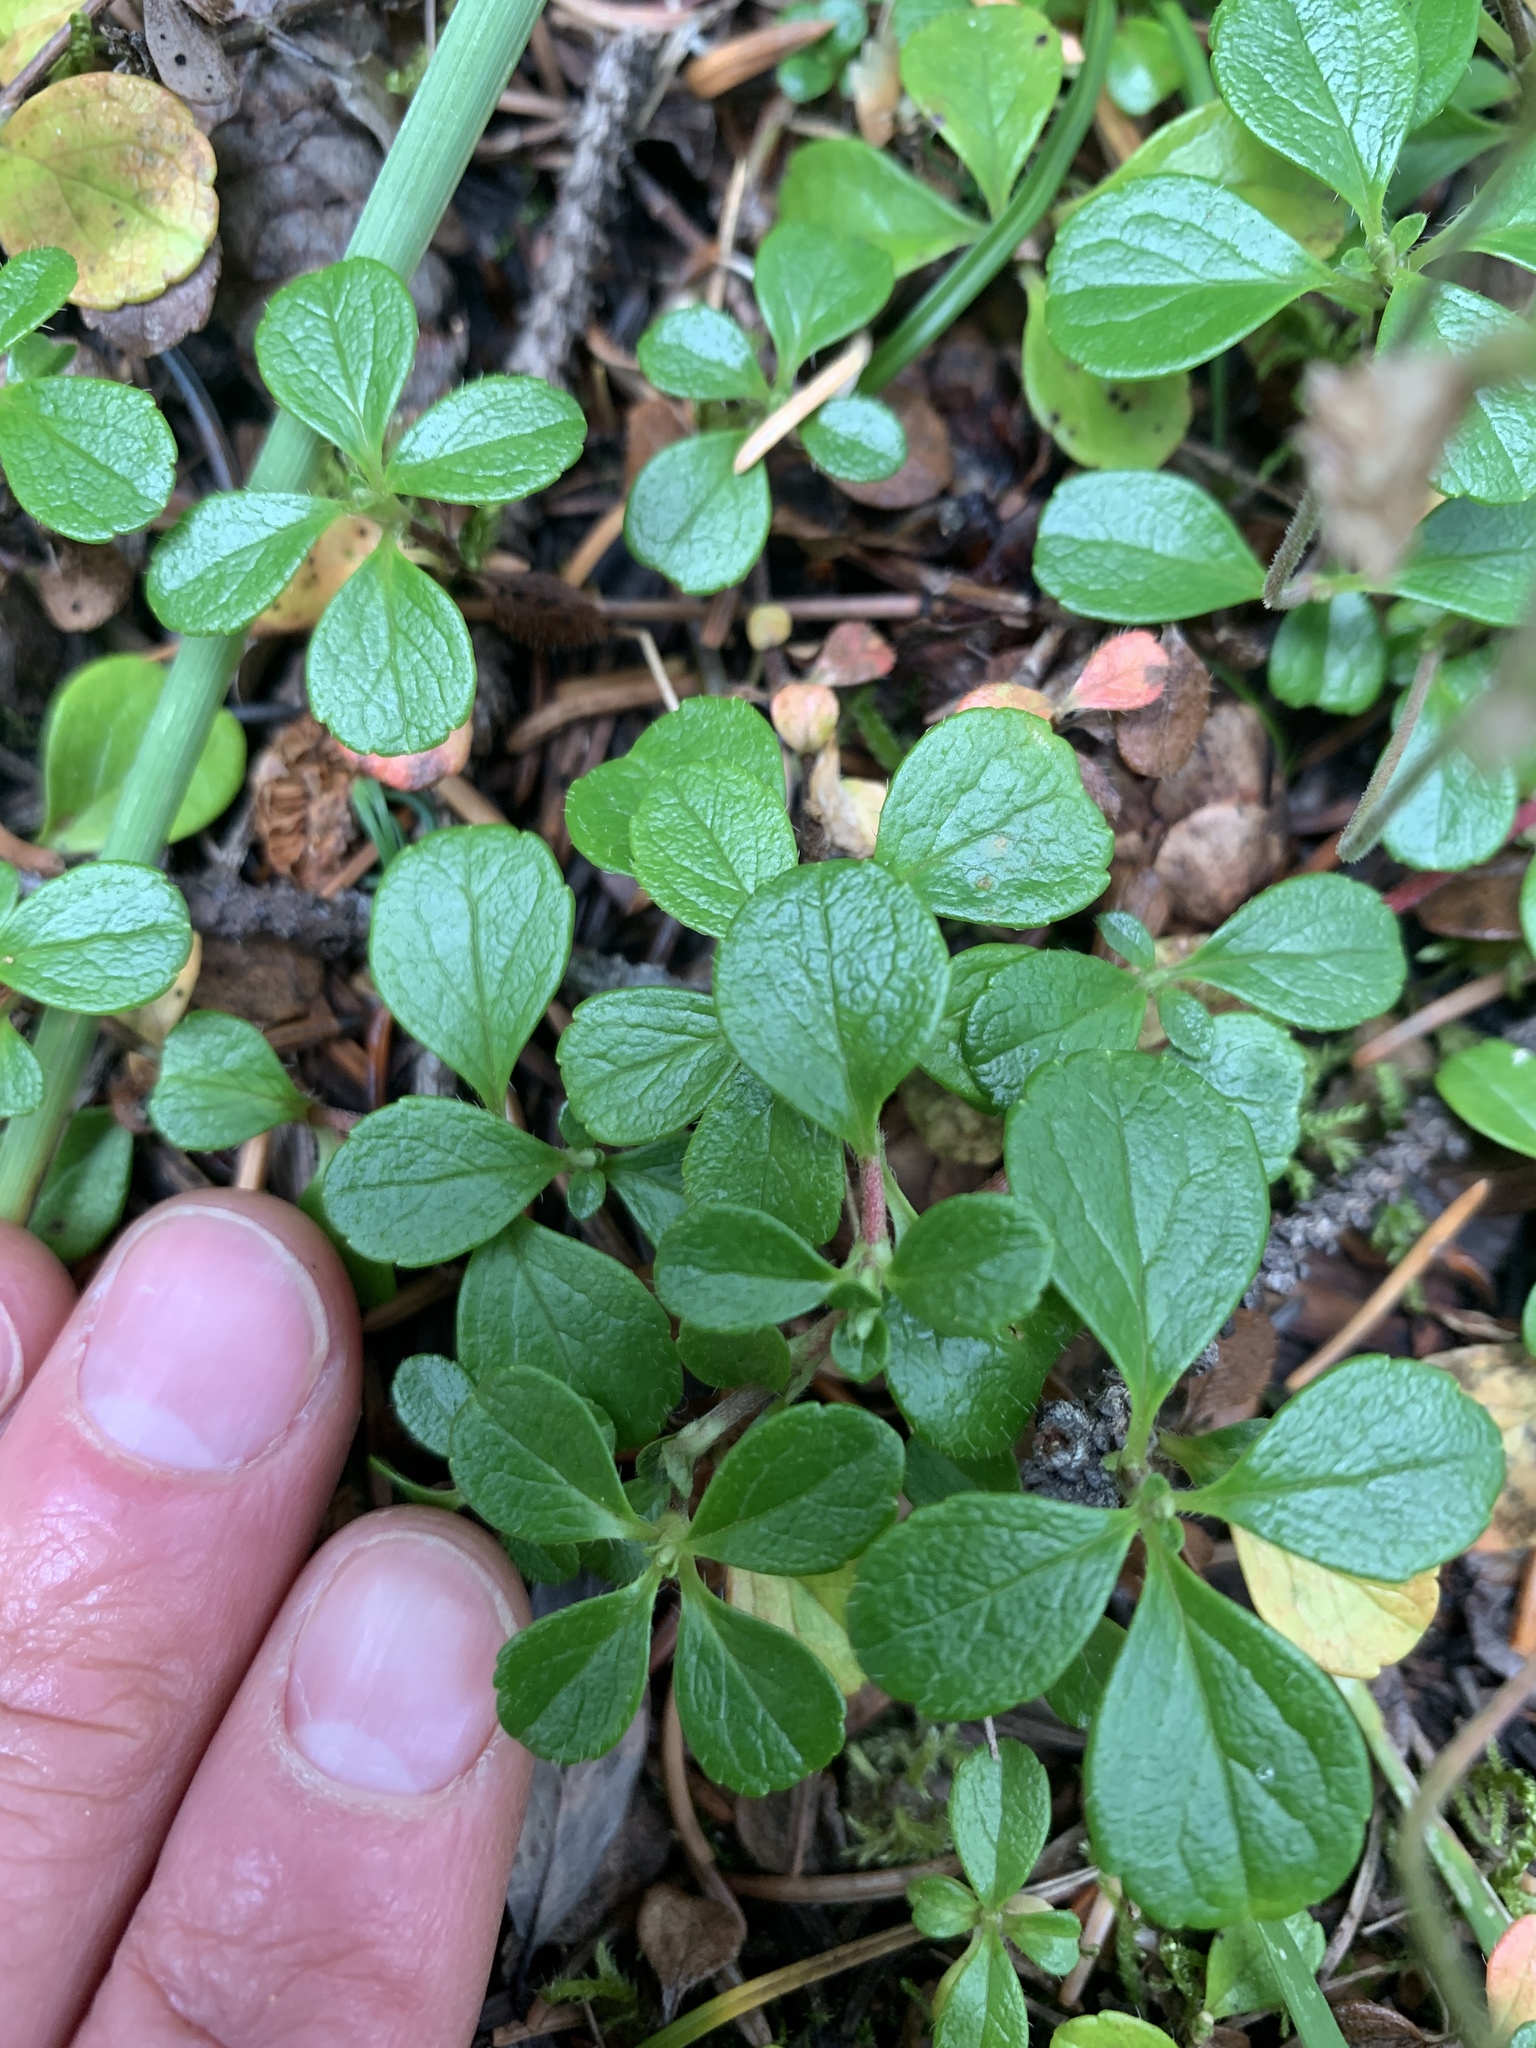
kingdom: Plantae
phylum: Tracheophyta
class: Magnoliopsida
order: Dipsacales
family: Caprifoliaceae
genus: Linnaea
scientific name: Linnaea borealis
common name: Twinflower
